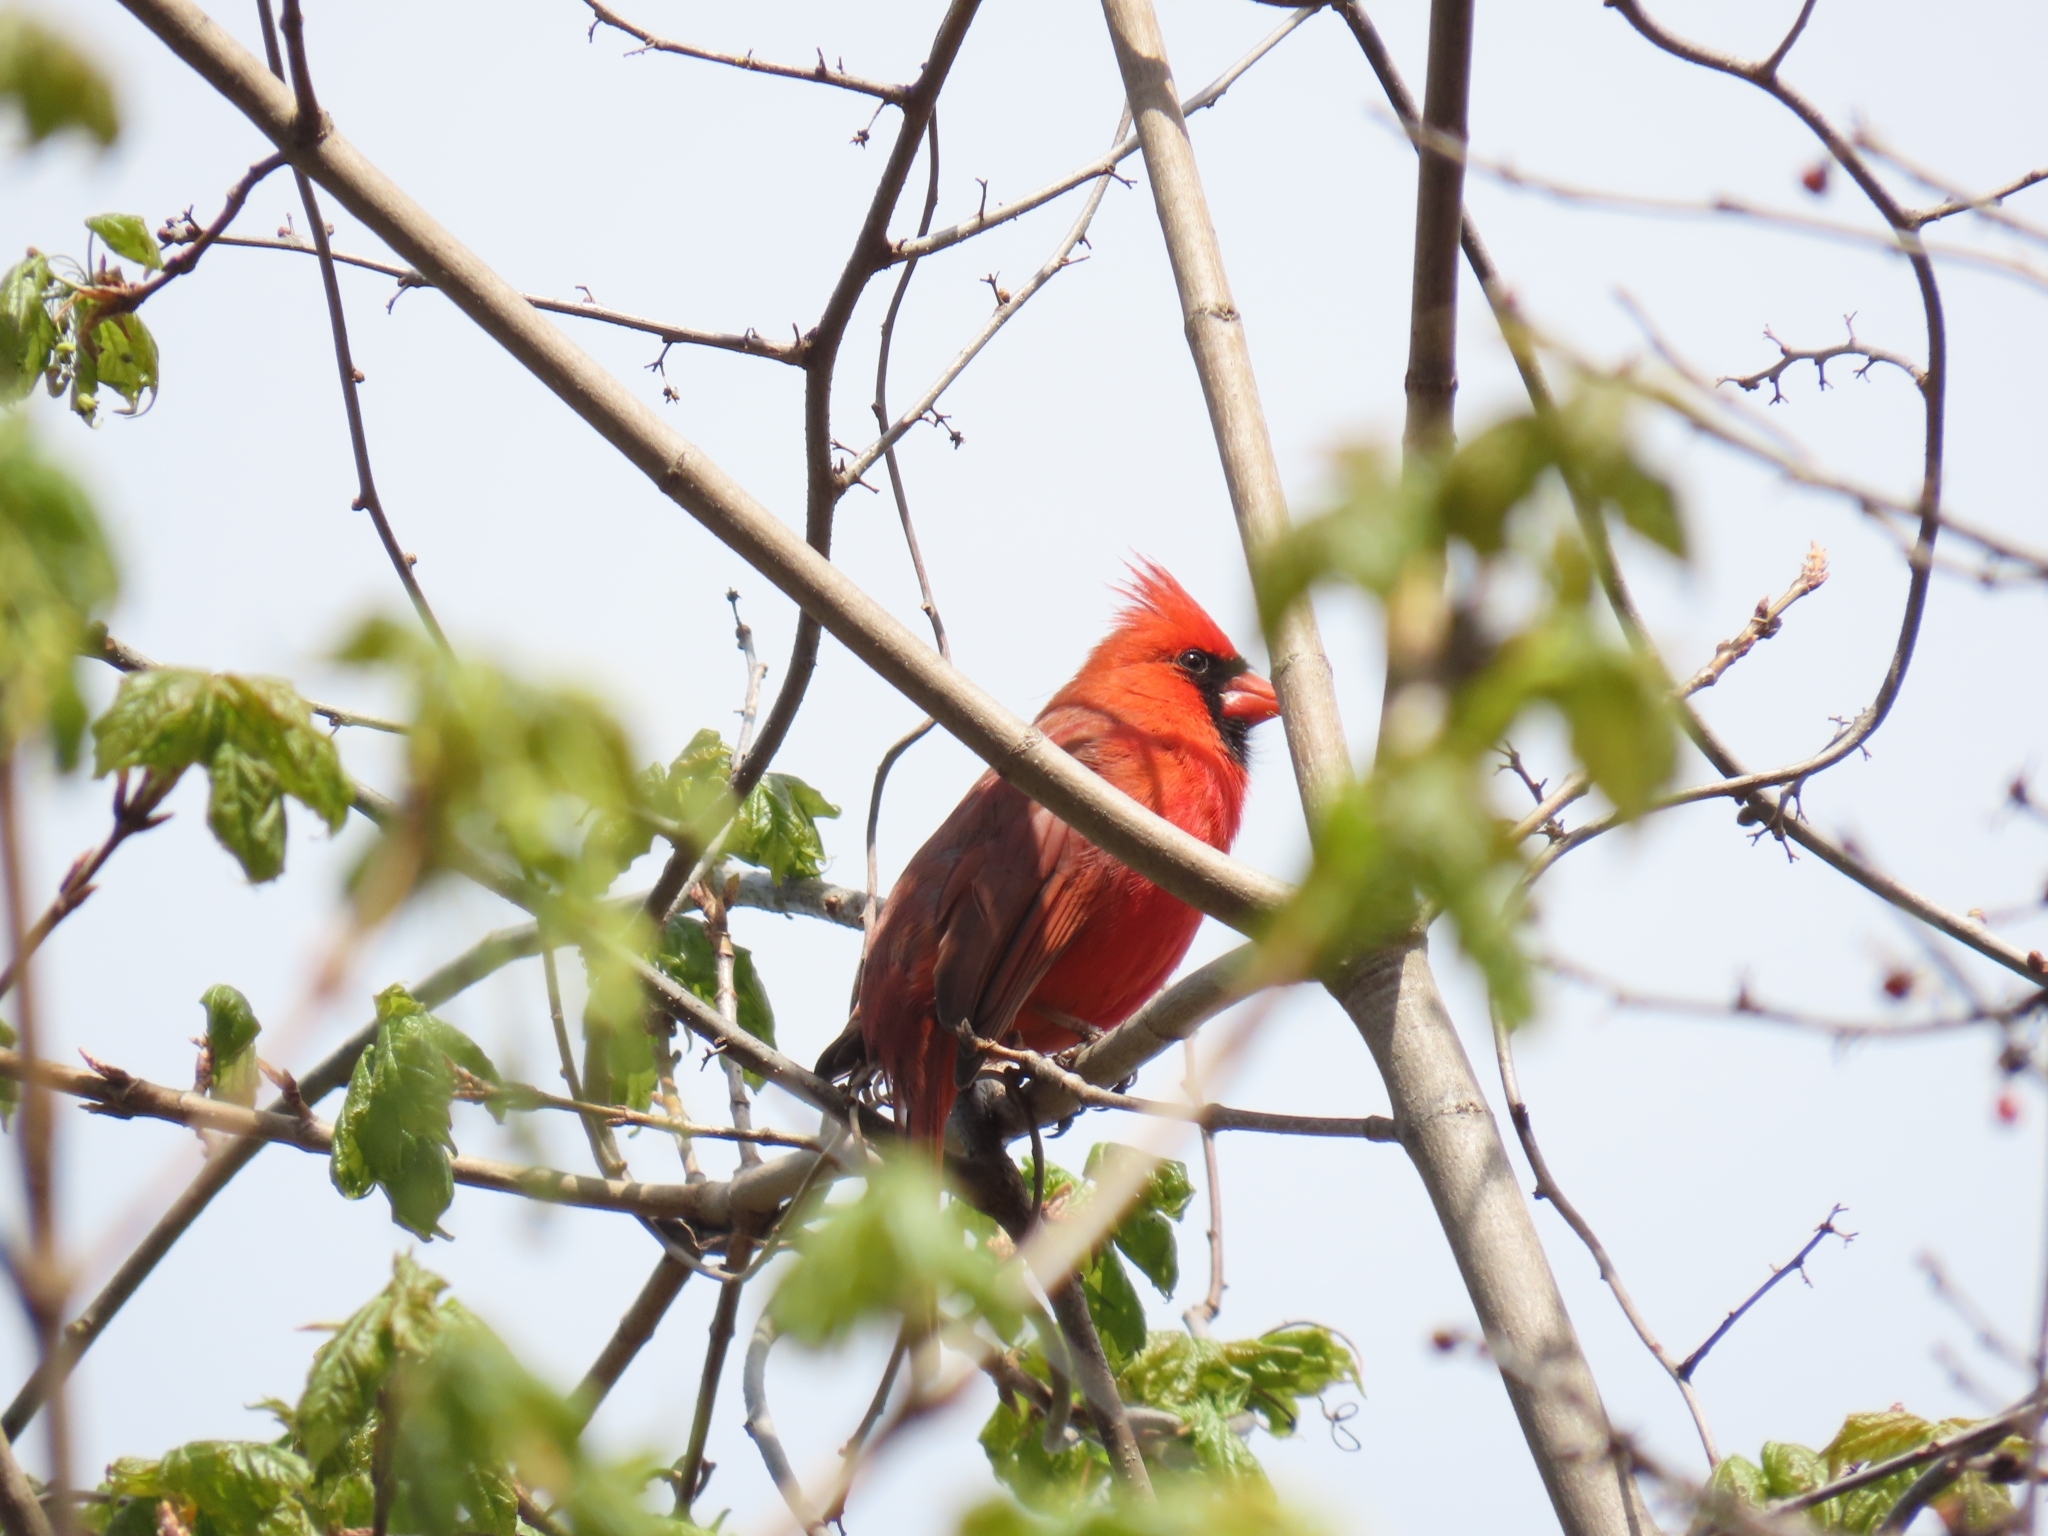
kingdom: Animalia
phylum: Chordata
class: Aves
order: Passeriformes
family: Cardinalidae
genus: Cardinalis
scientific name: Cardinalis cardinalis
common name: Northern cardinal
